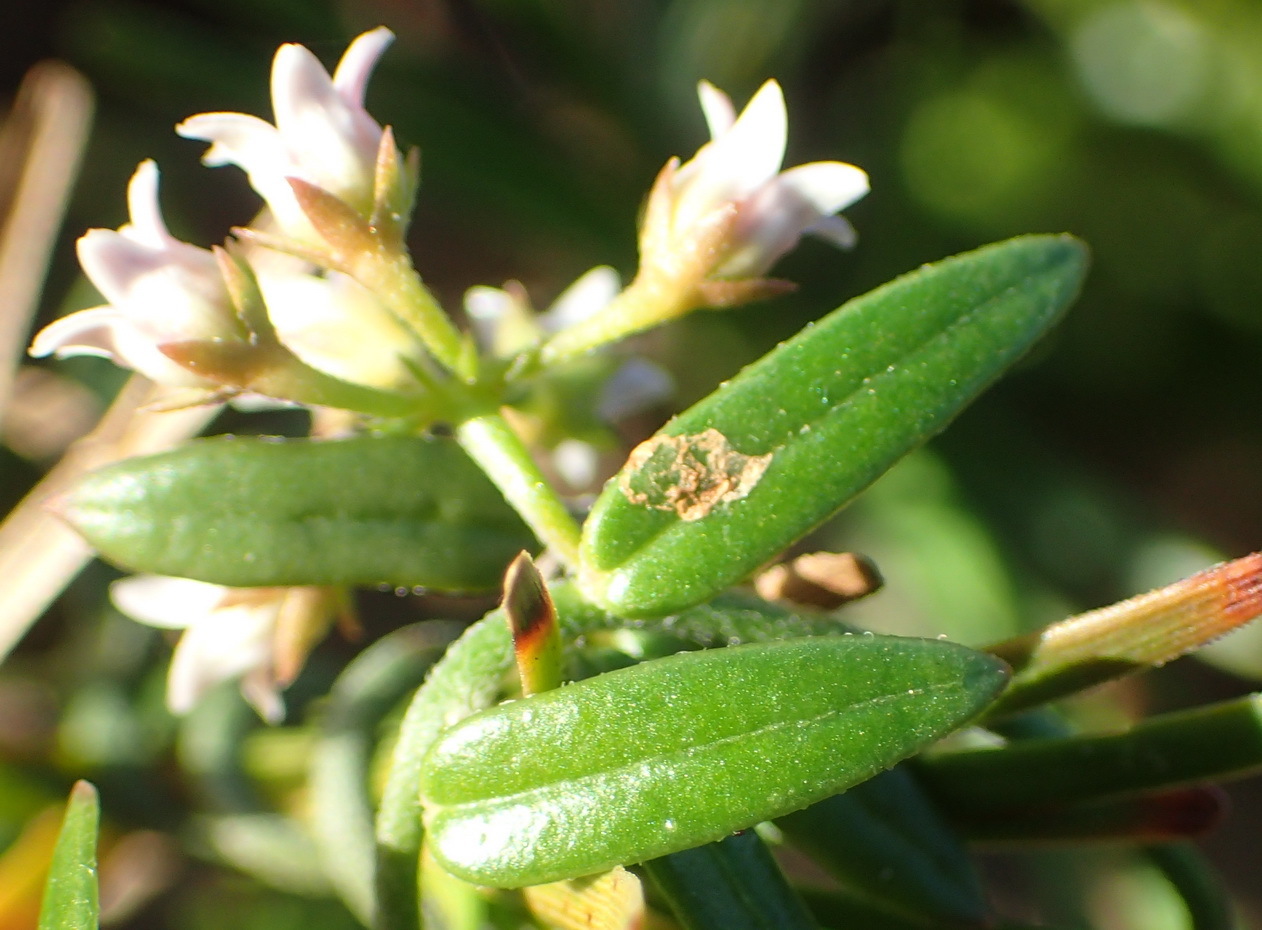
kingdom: Plantae
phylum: Tracheophyta
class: Magnoliopsida
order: Gentianales
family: Apocynaceae
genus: Astephanus
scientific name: Astephanus triflorus
